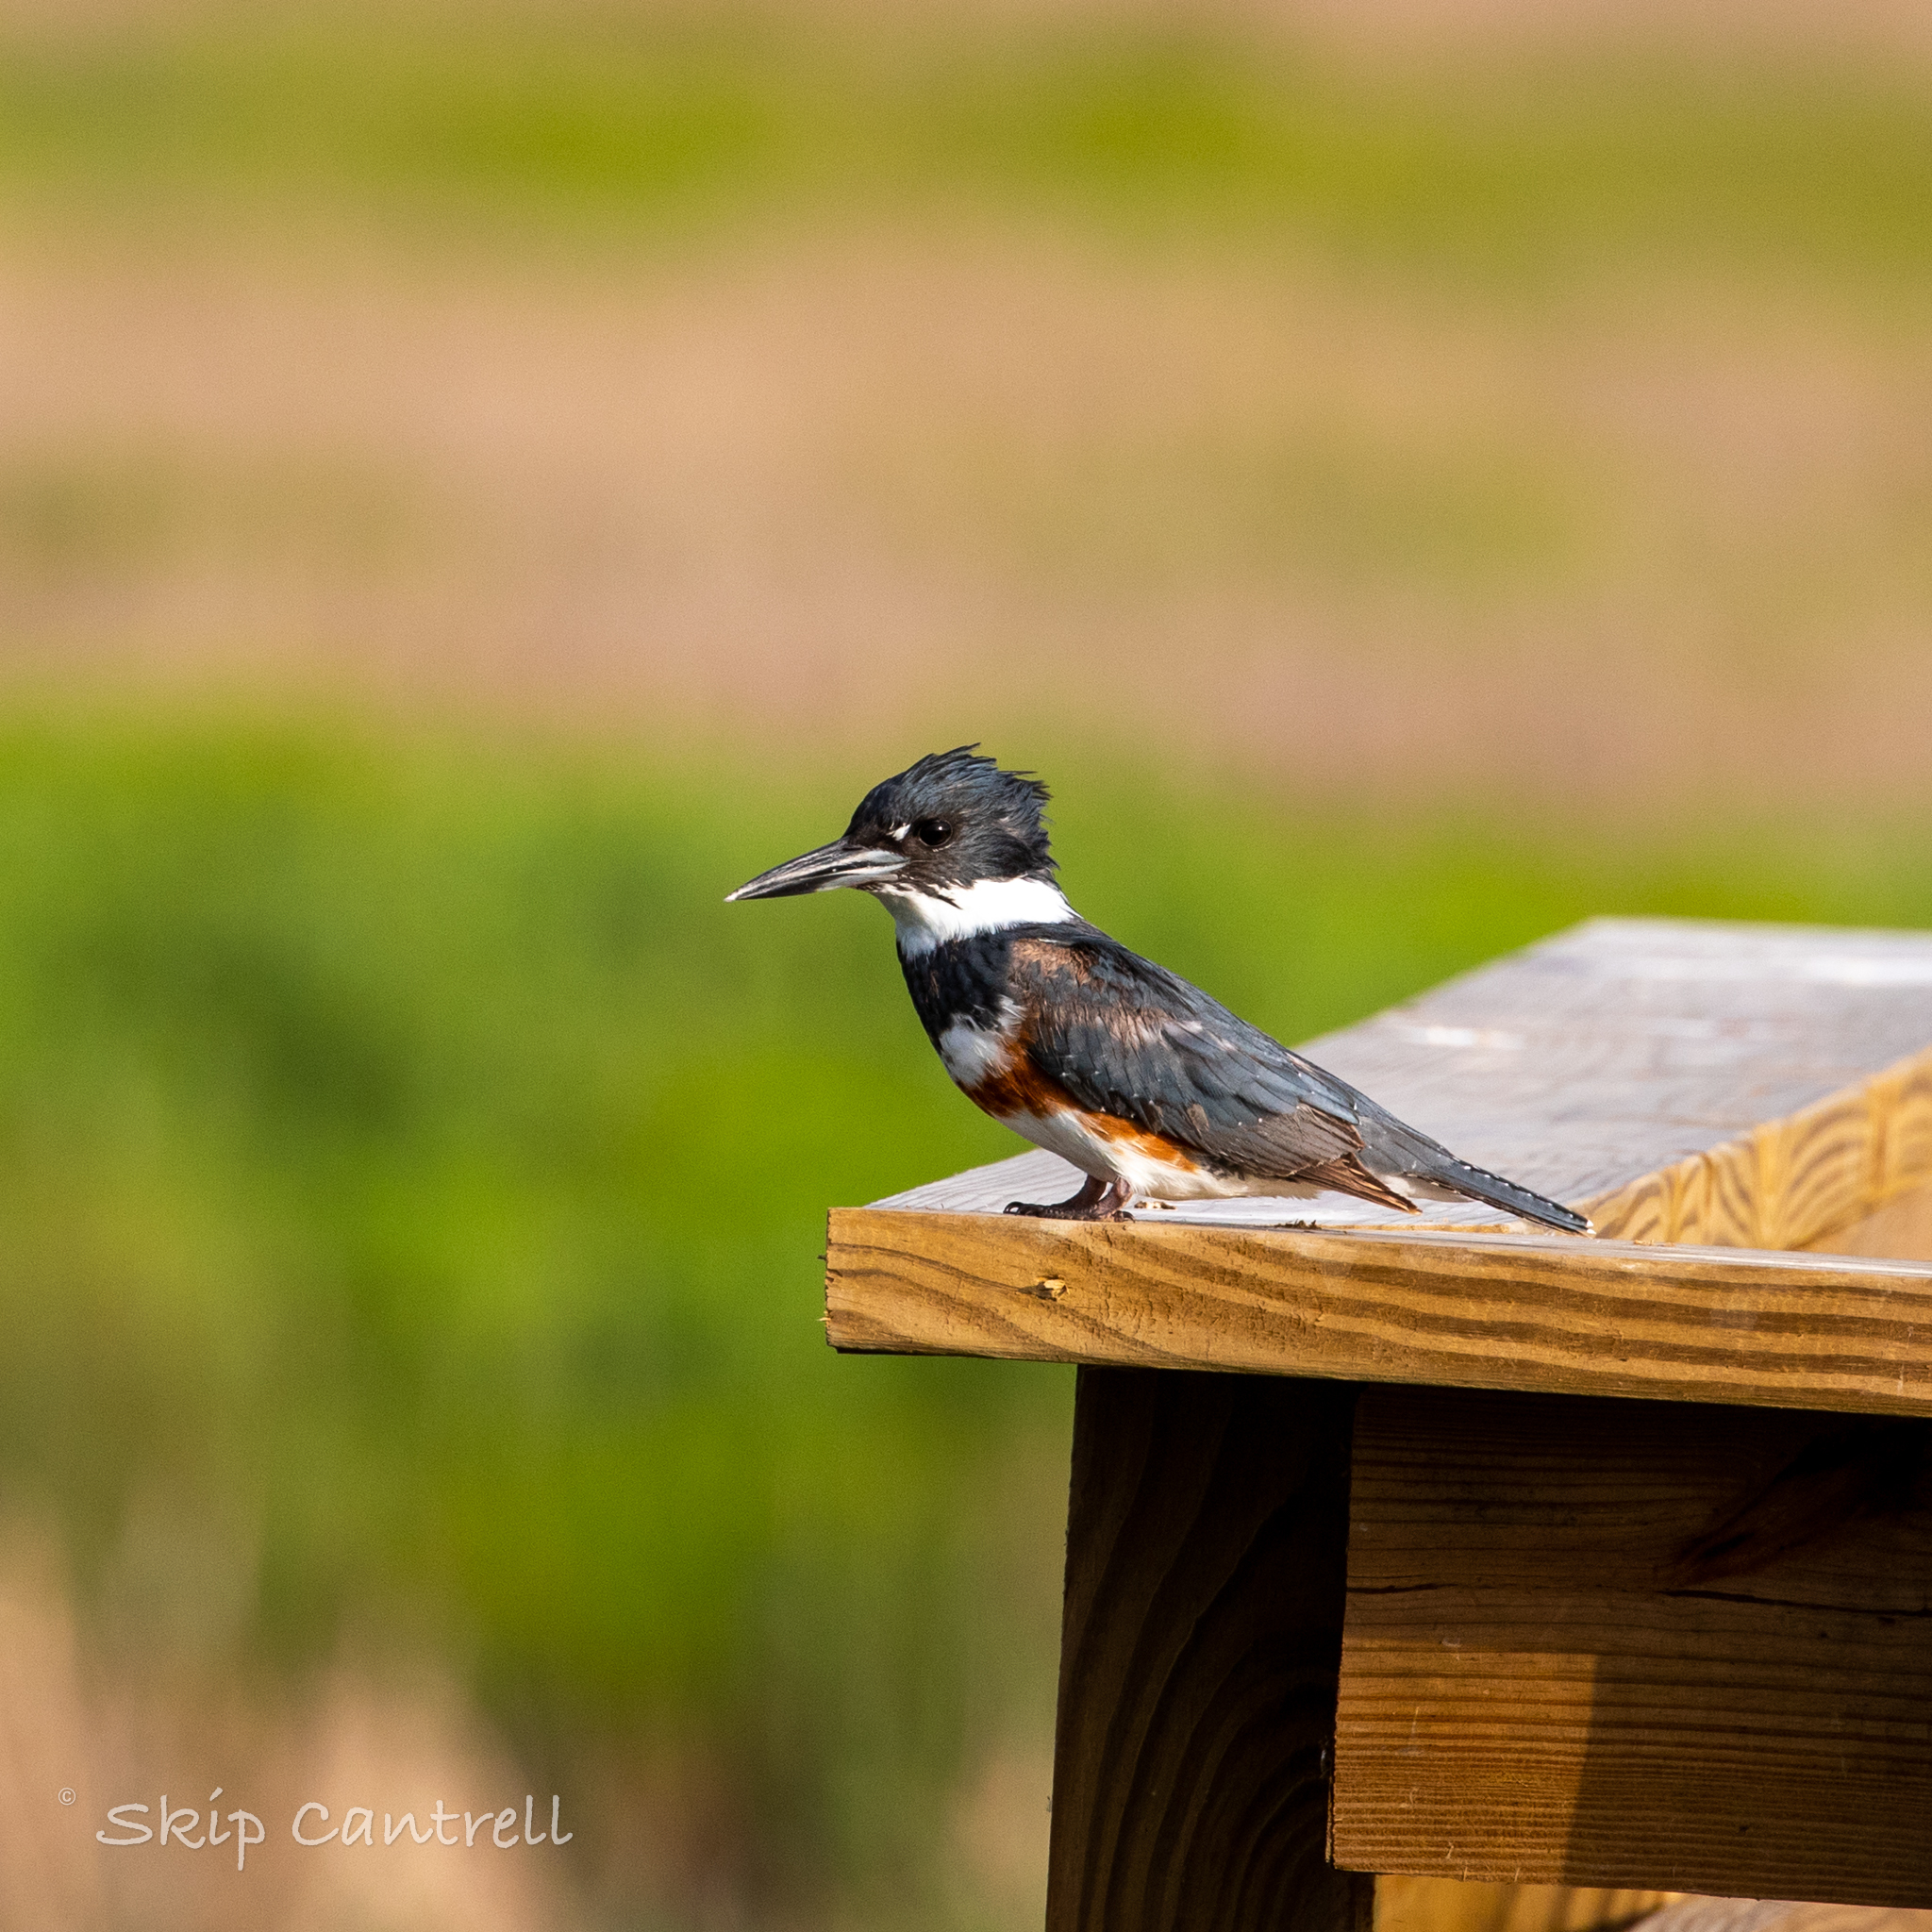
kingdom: Animalia
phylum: Chordata
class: Aves
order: Coraciiformes
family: Alcedinidae
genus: Megaceryle
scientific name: Megaceryle alcyon
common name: Belted kingfisher
